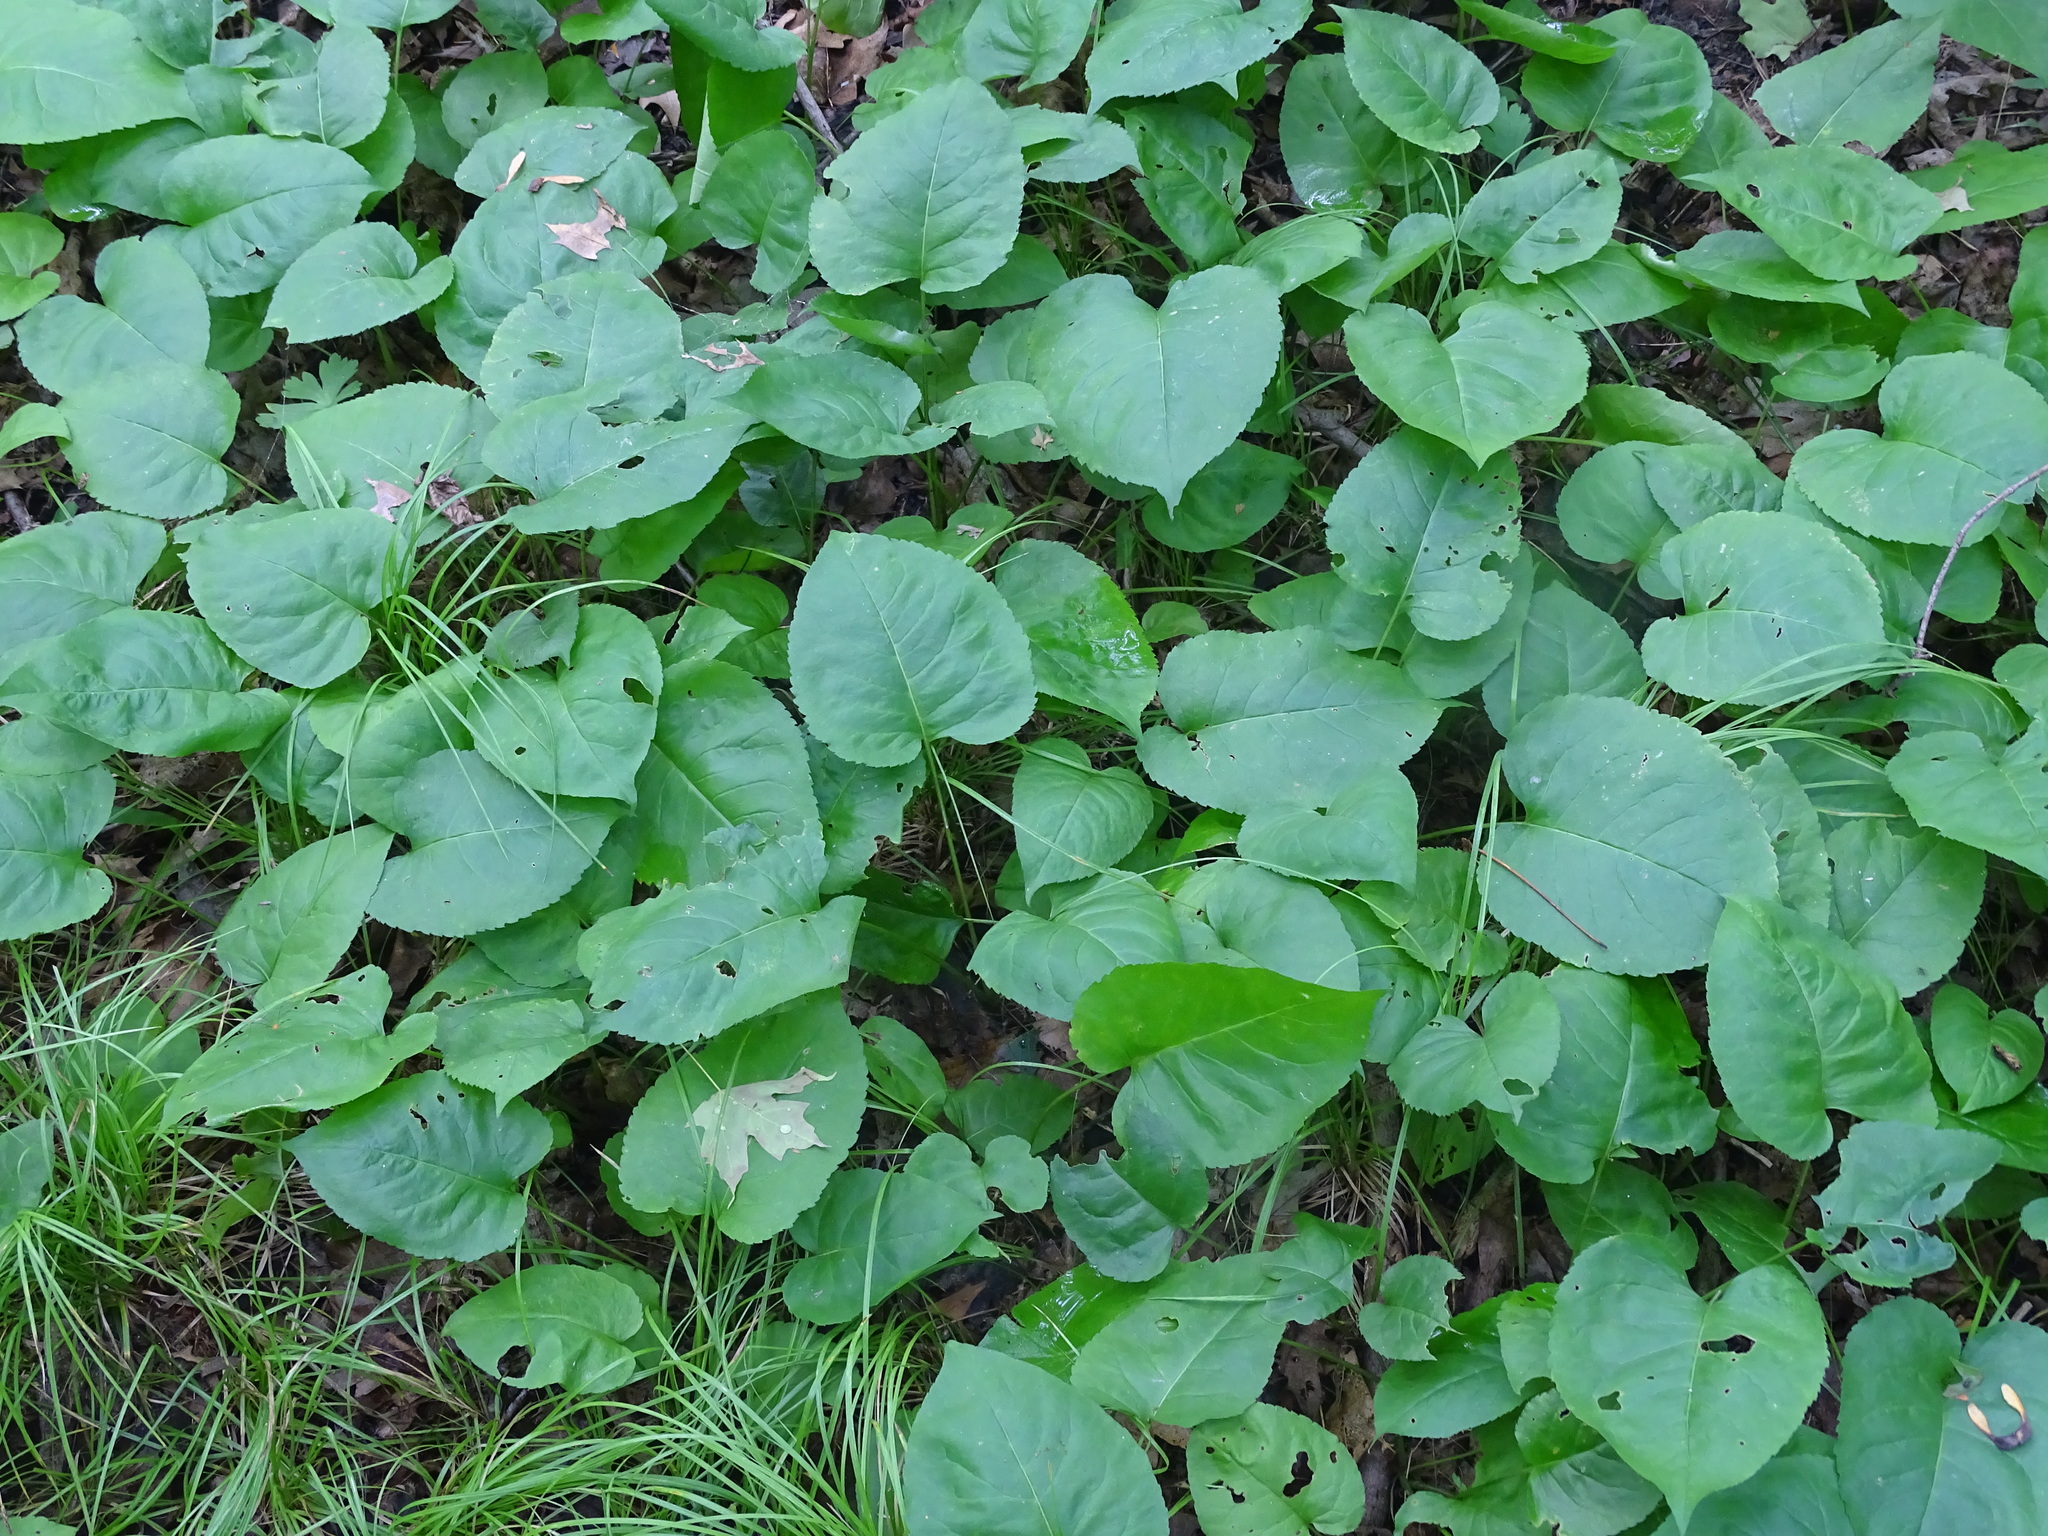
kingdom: Plantae
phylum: Tracheophyta
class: Magnoliopsida
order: Asterales
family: Asteraceae
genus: Eurybia
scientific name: Eurybia macrophylla
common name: Big-leaved aster
